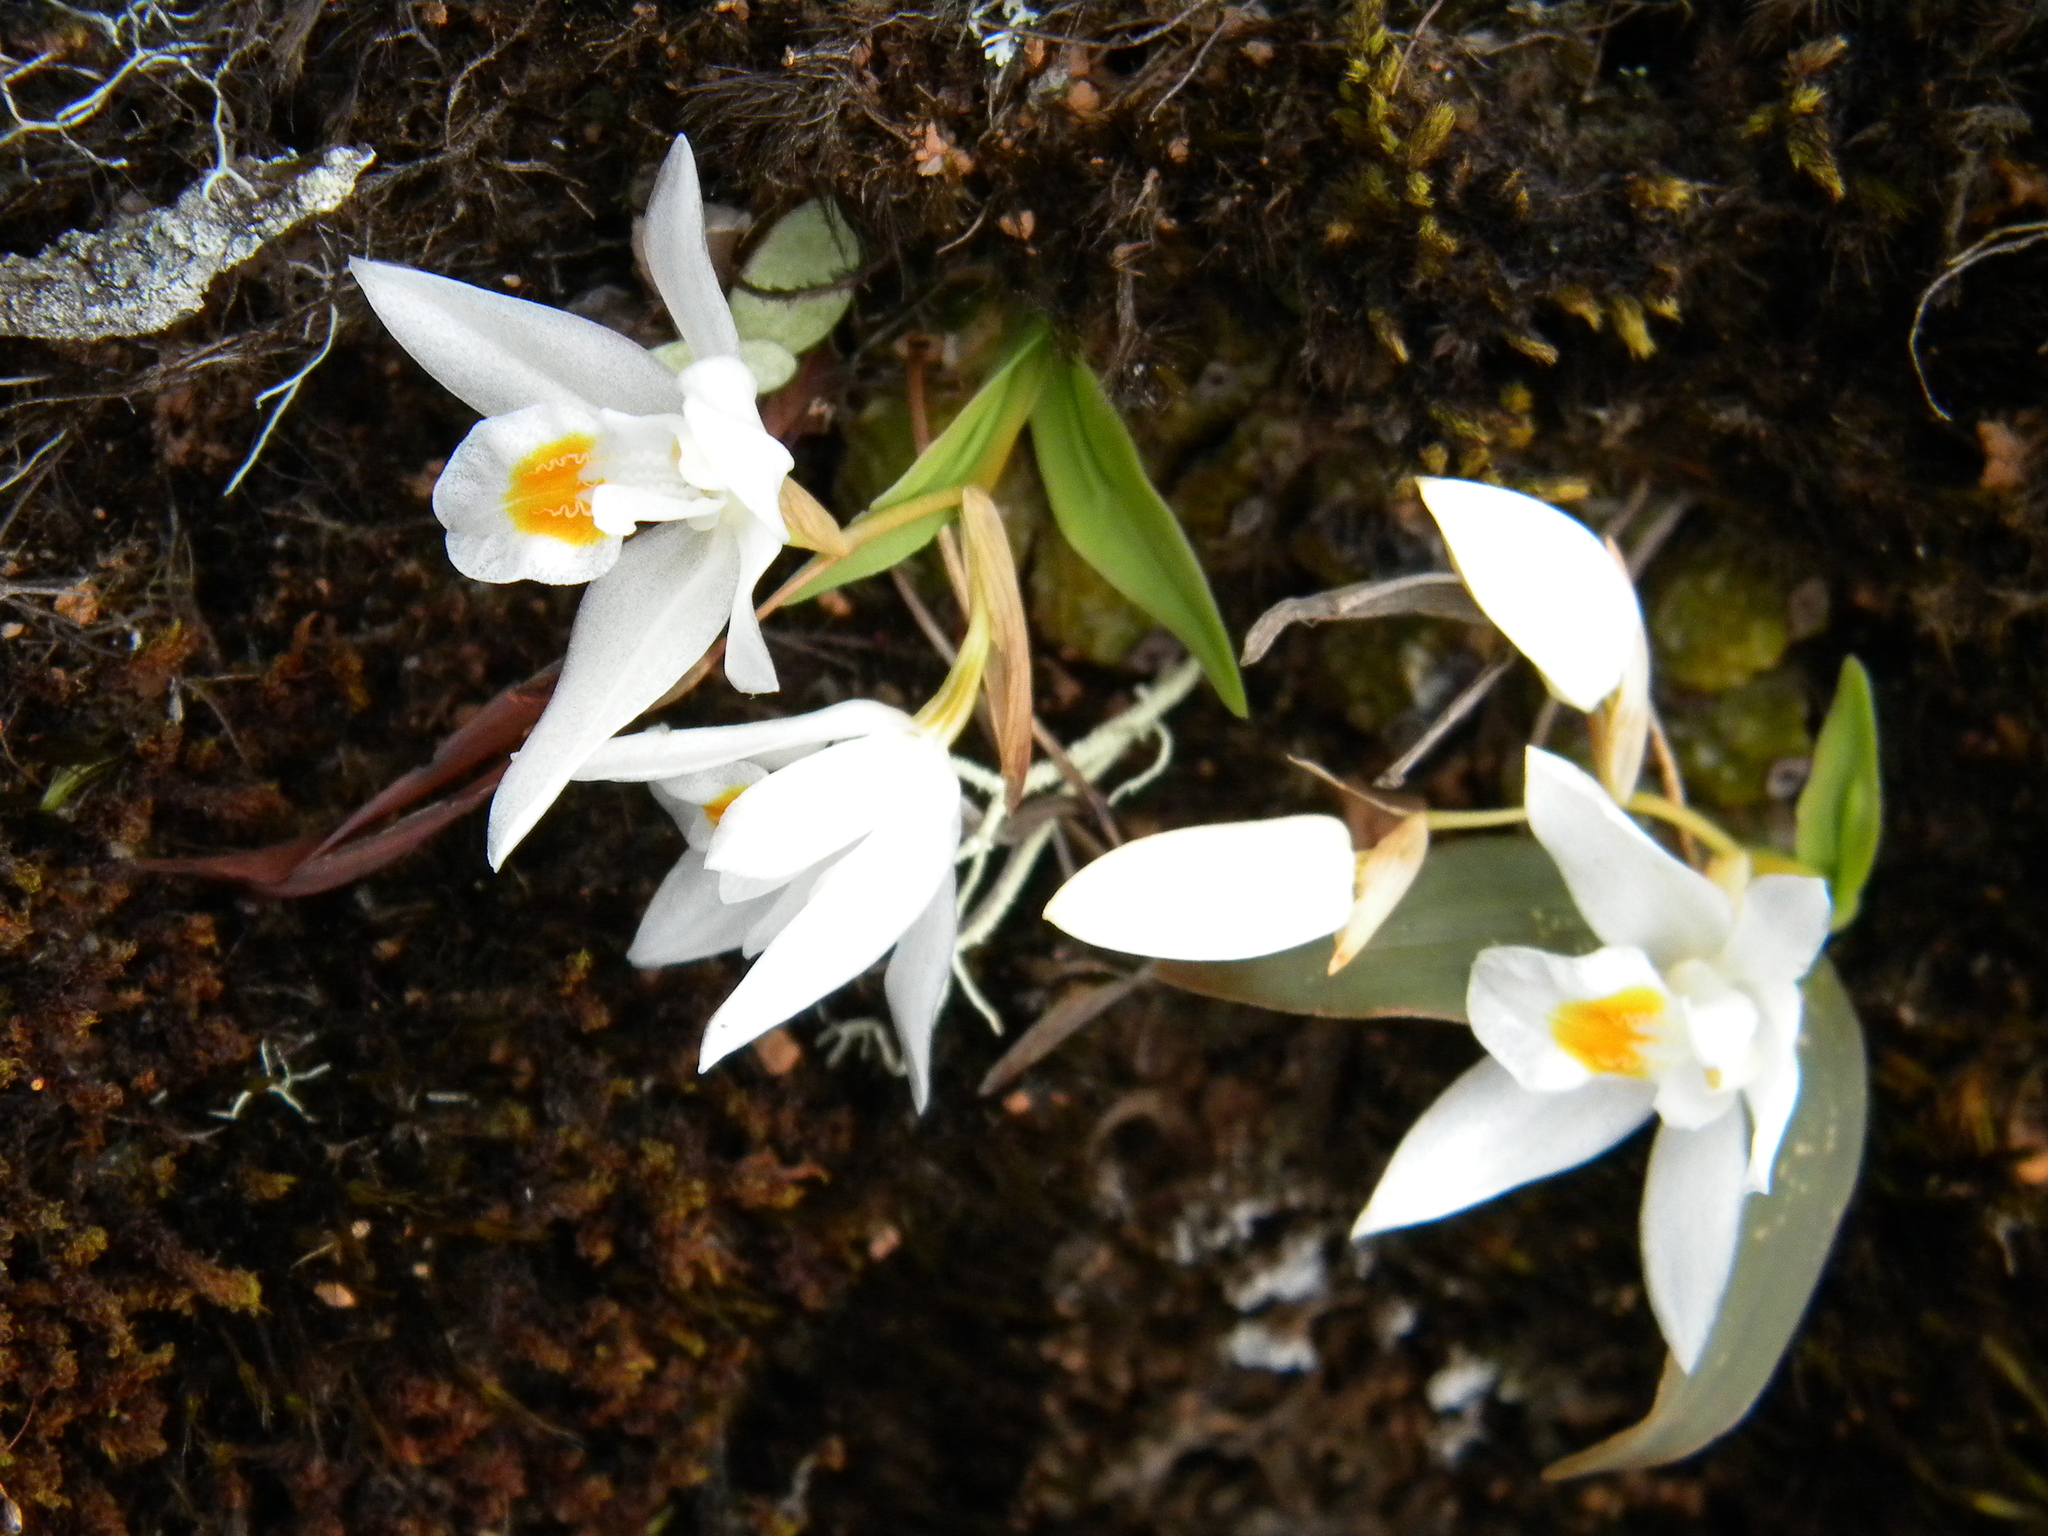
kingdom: Plantae
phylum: Tracheophyta
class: Liliopsida
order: Asparagales
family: Orchidaceae
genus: Coelogyne
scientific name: Coelogyne odoratissima
